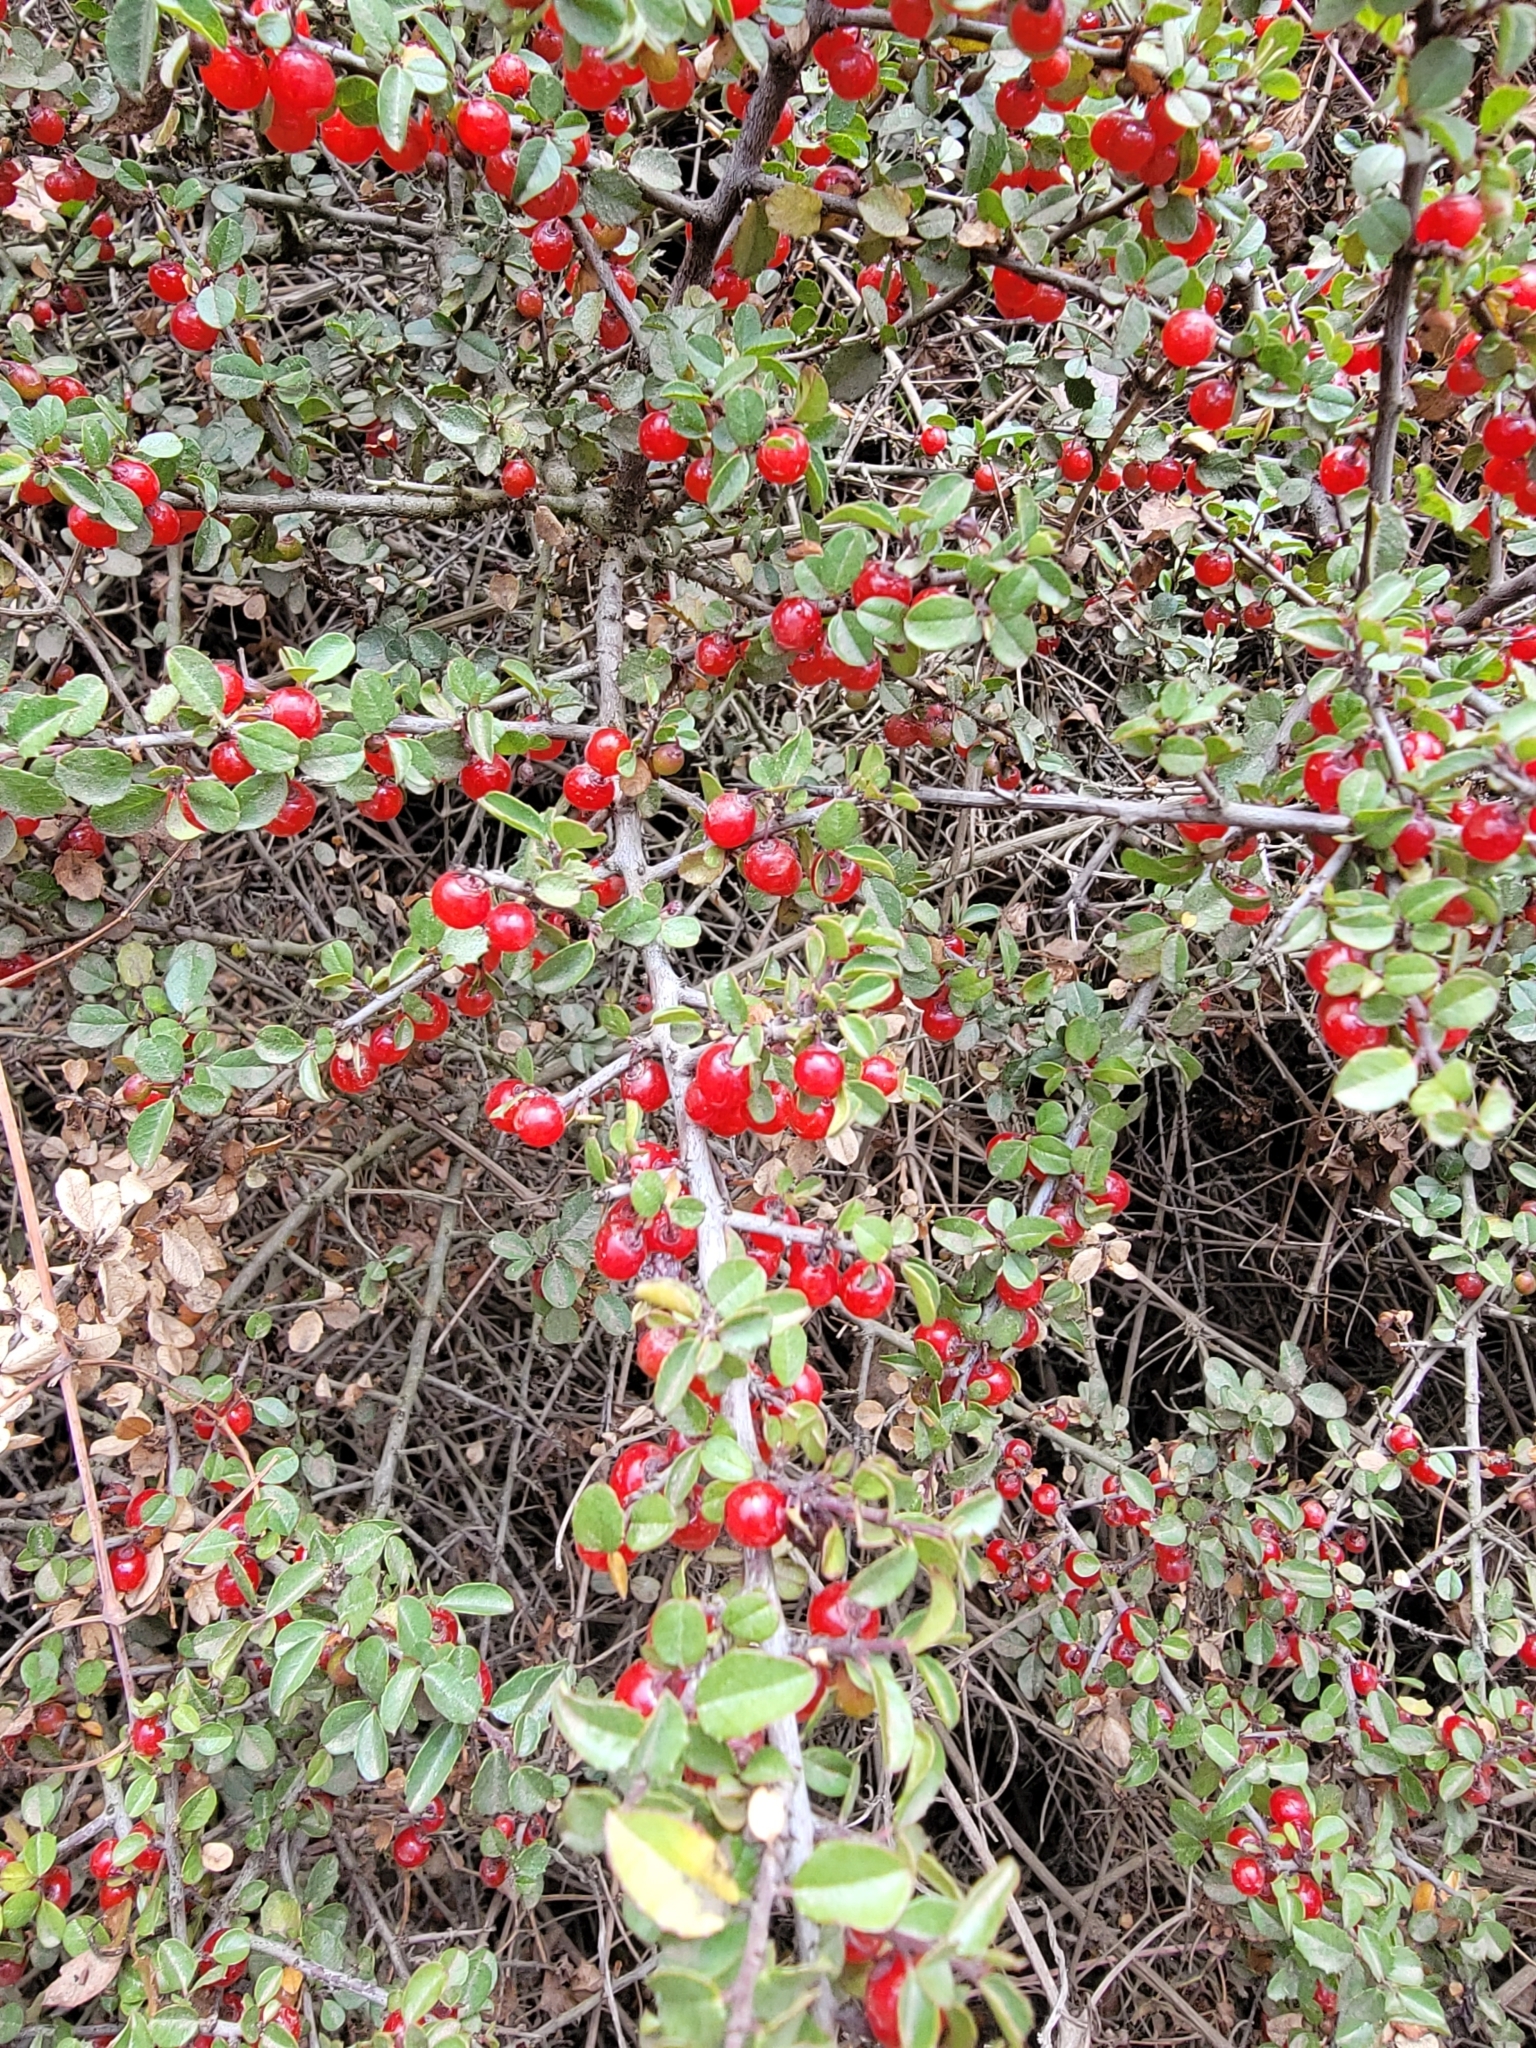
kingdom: Plantae
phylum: Tracheophyta
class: Magnoliopsida
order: Rosales
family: Rhamnaceae
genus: Endotropis
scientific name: Endotropis crocea
